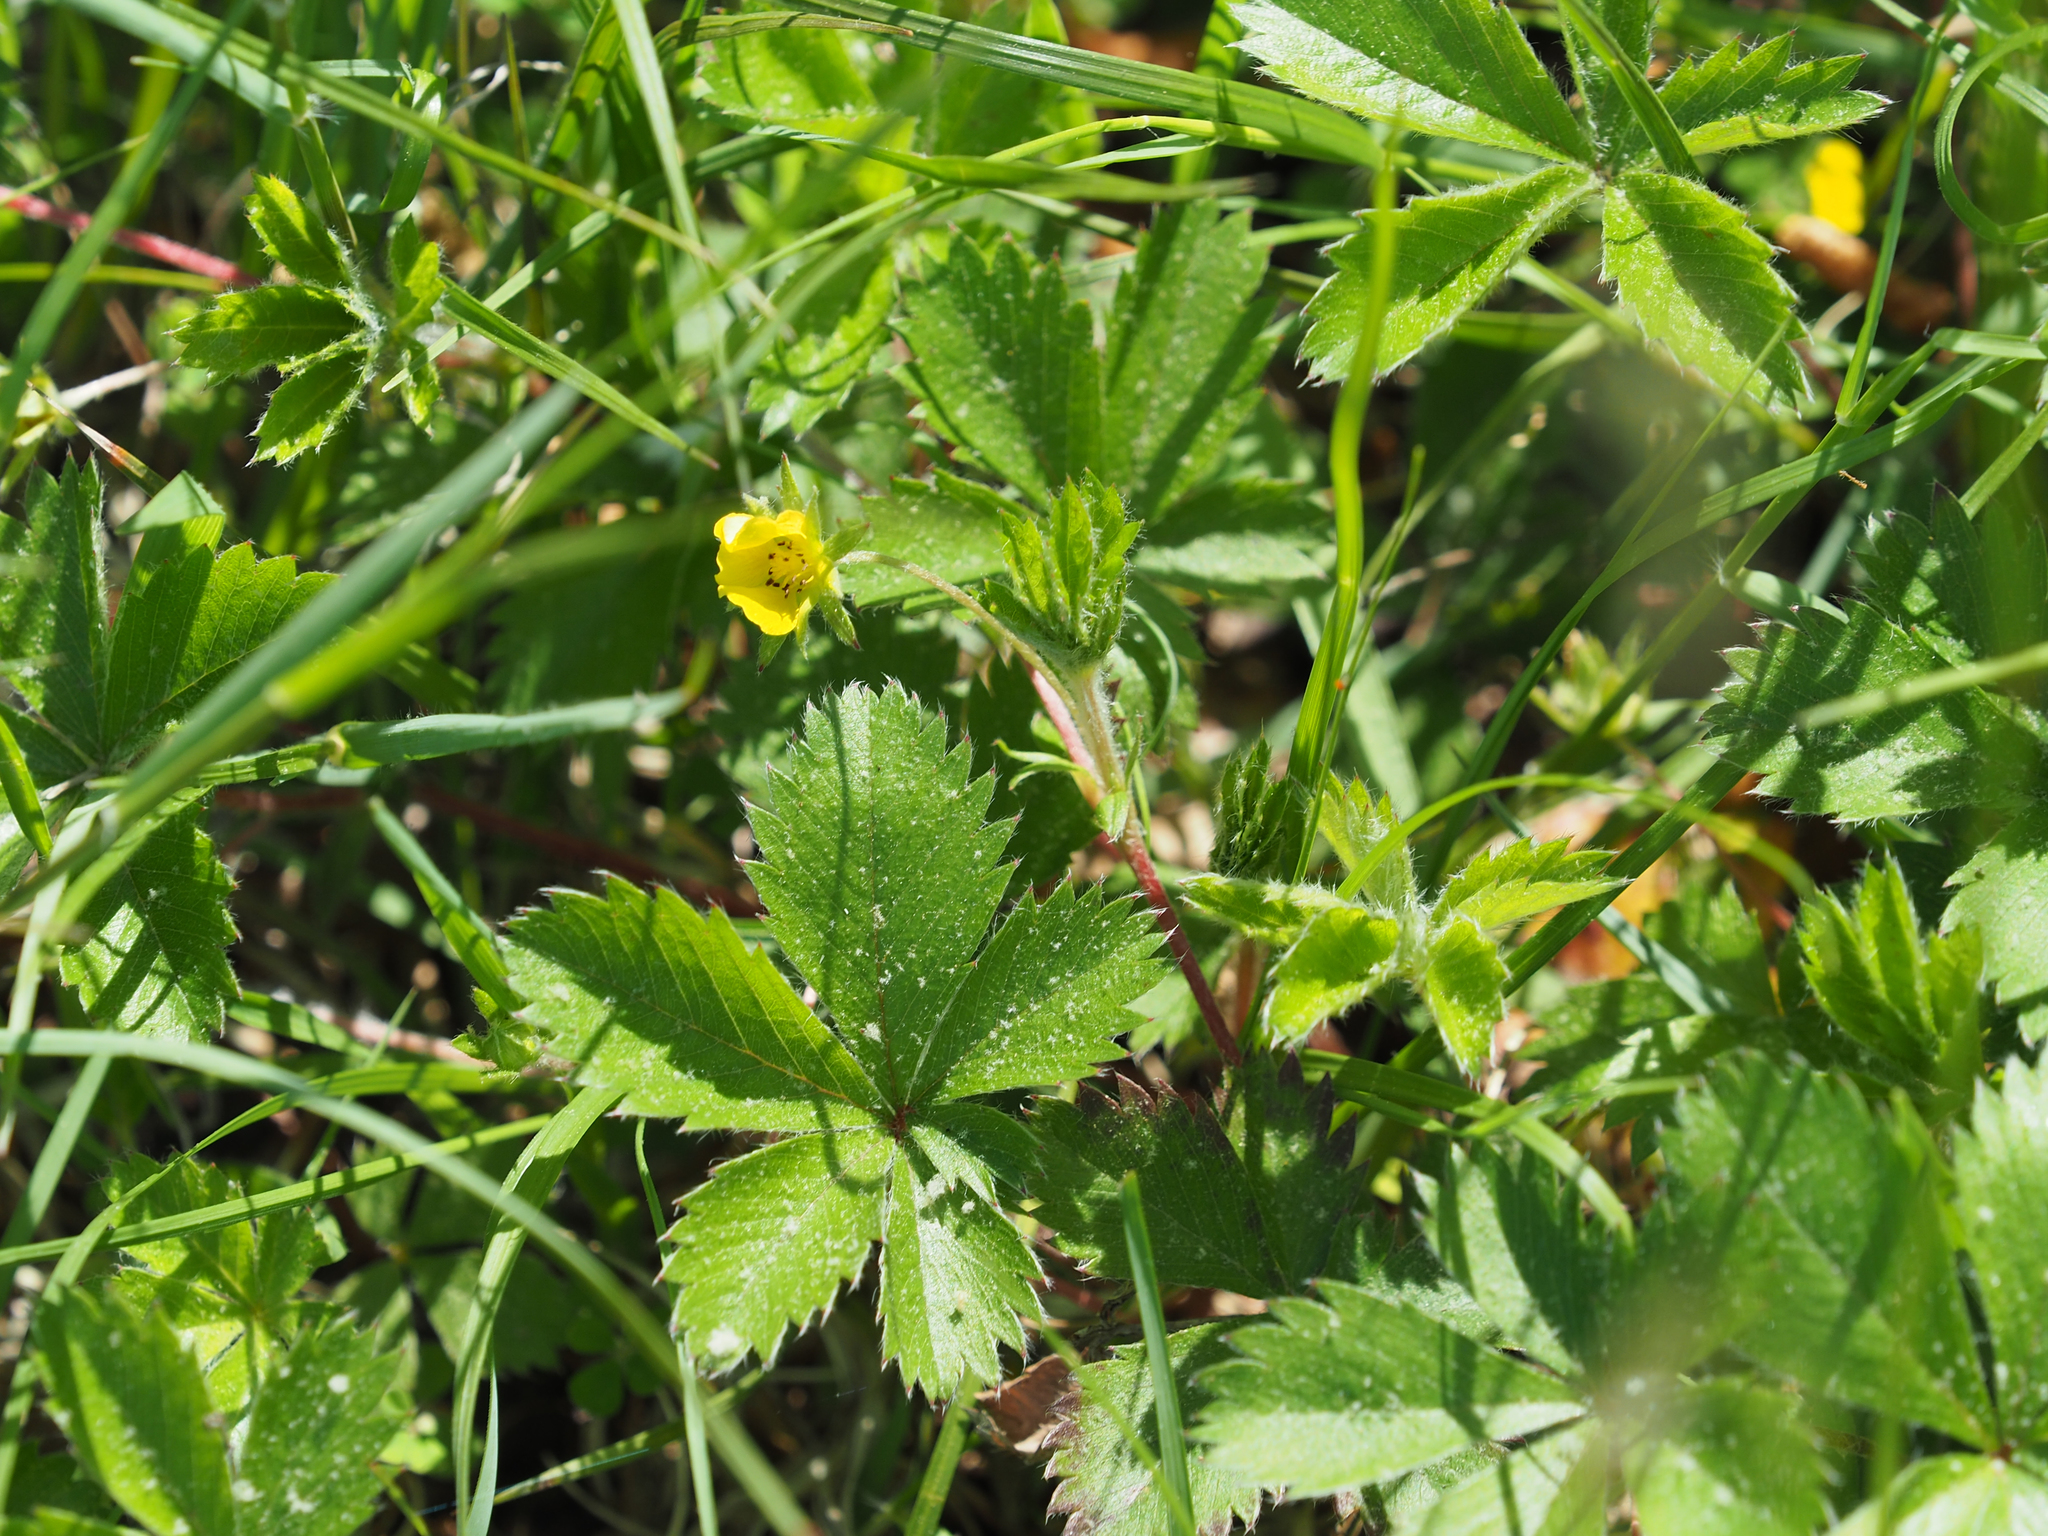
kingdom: Plantae
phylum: Tracheophyta
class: Magnoliopsida
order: Rosales
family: Rosaceae
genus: Potentilla
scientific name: Potentilla canadensis
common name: Canada cinquefoil
